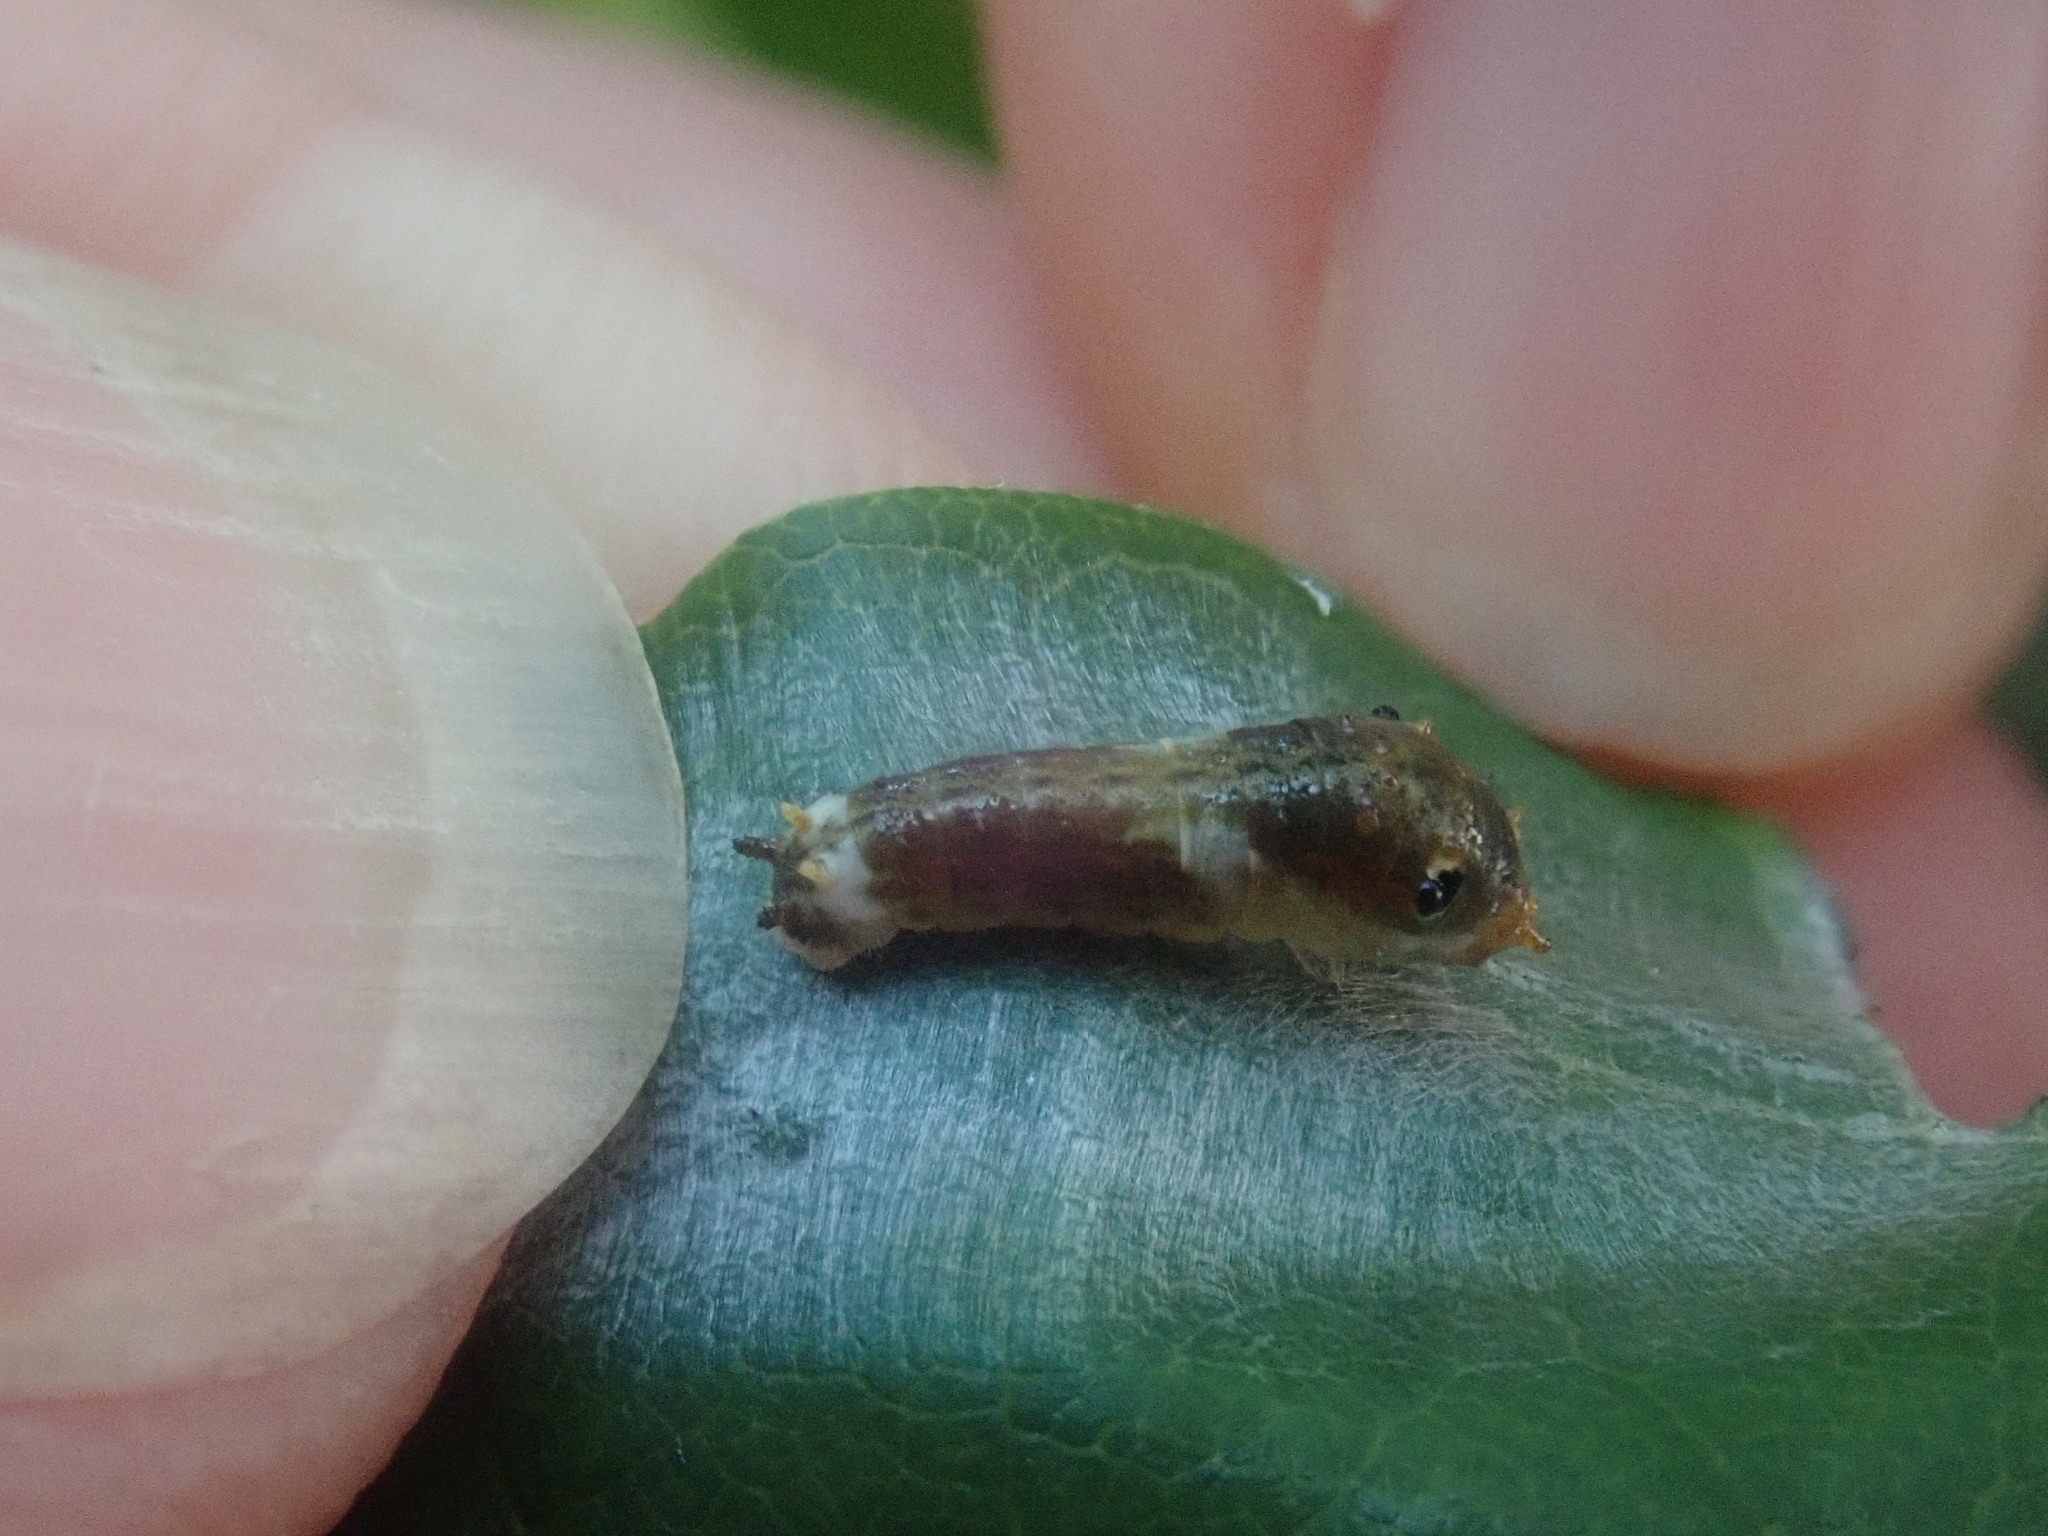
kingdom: Animalia
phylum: Arthropoda
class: Insecta
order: Lepidoptera
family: Papilionidae
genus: Papilio
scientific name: Papilio troilus
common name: Spicebush swallowtail
